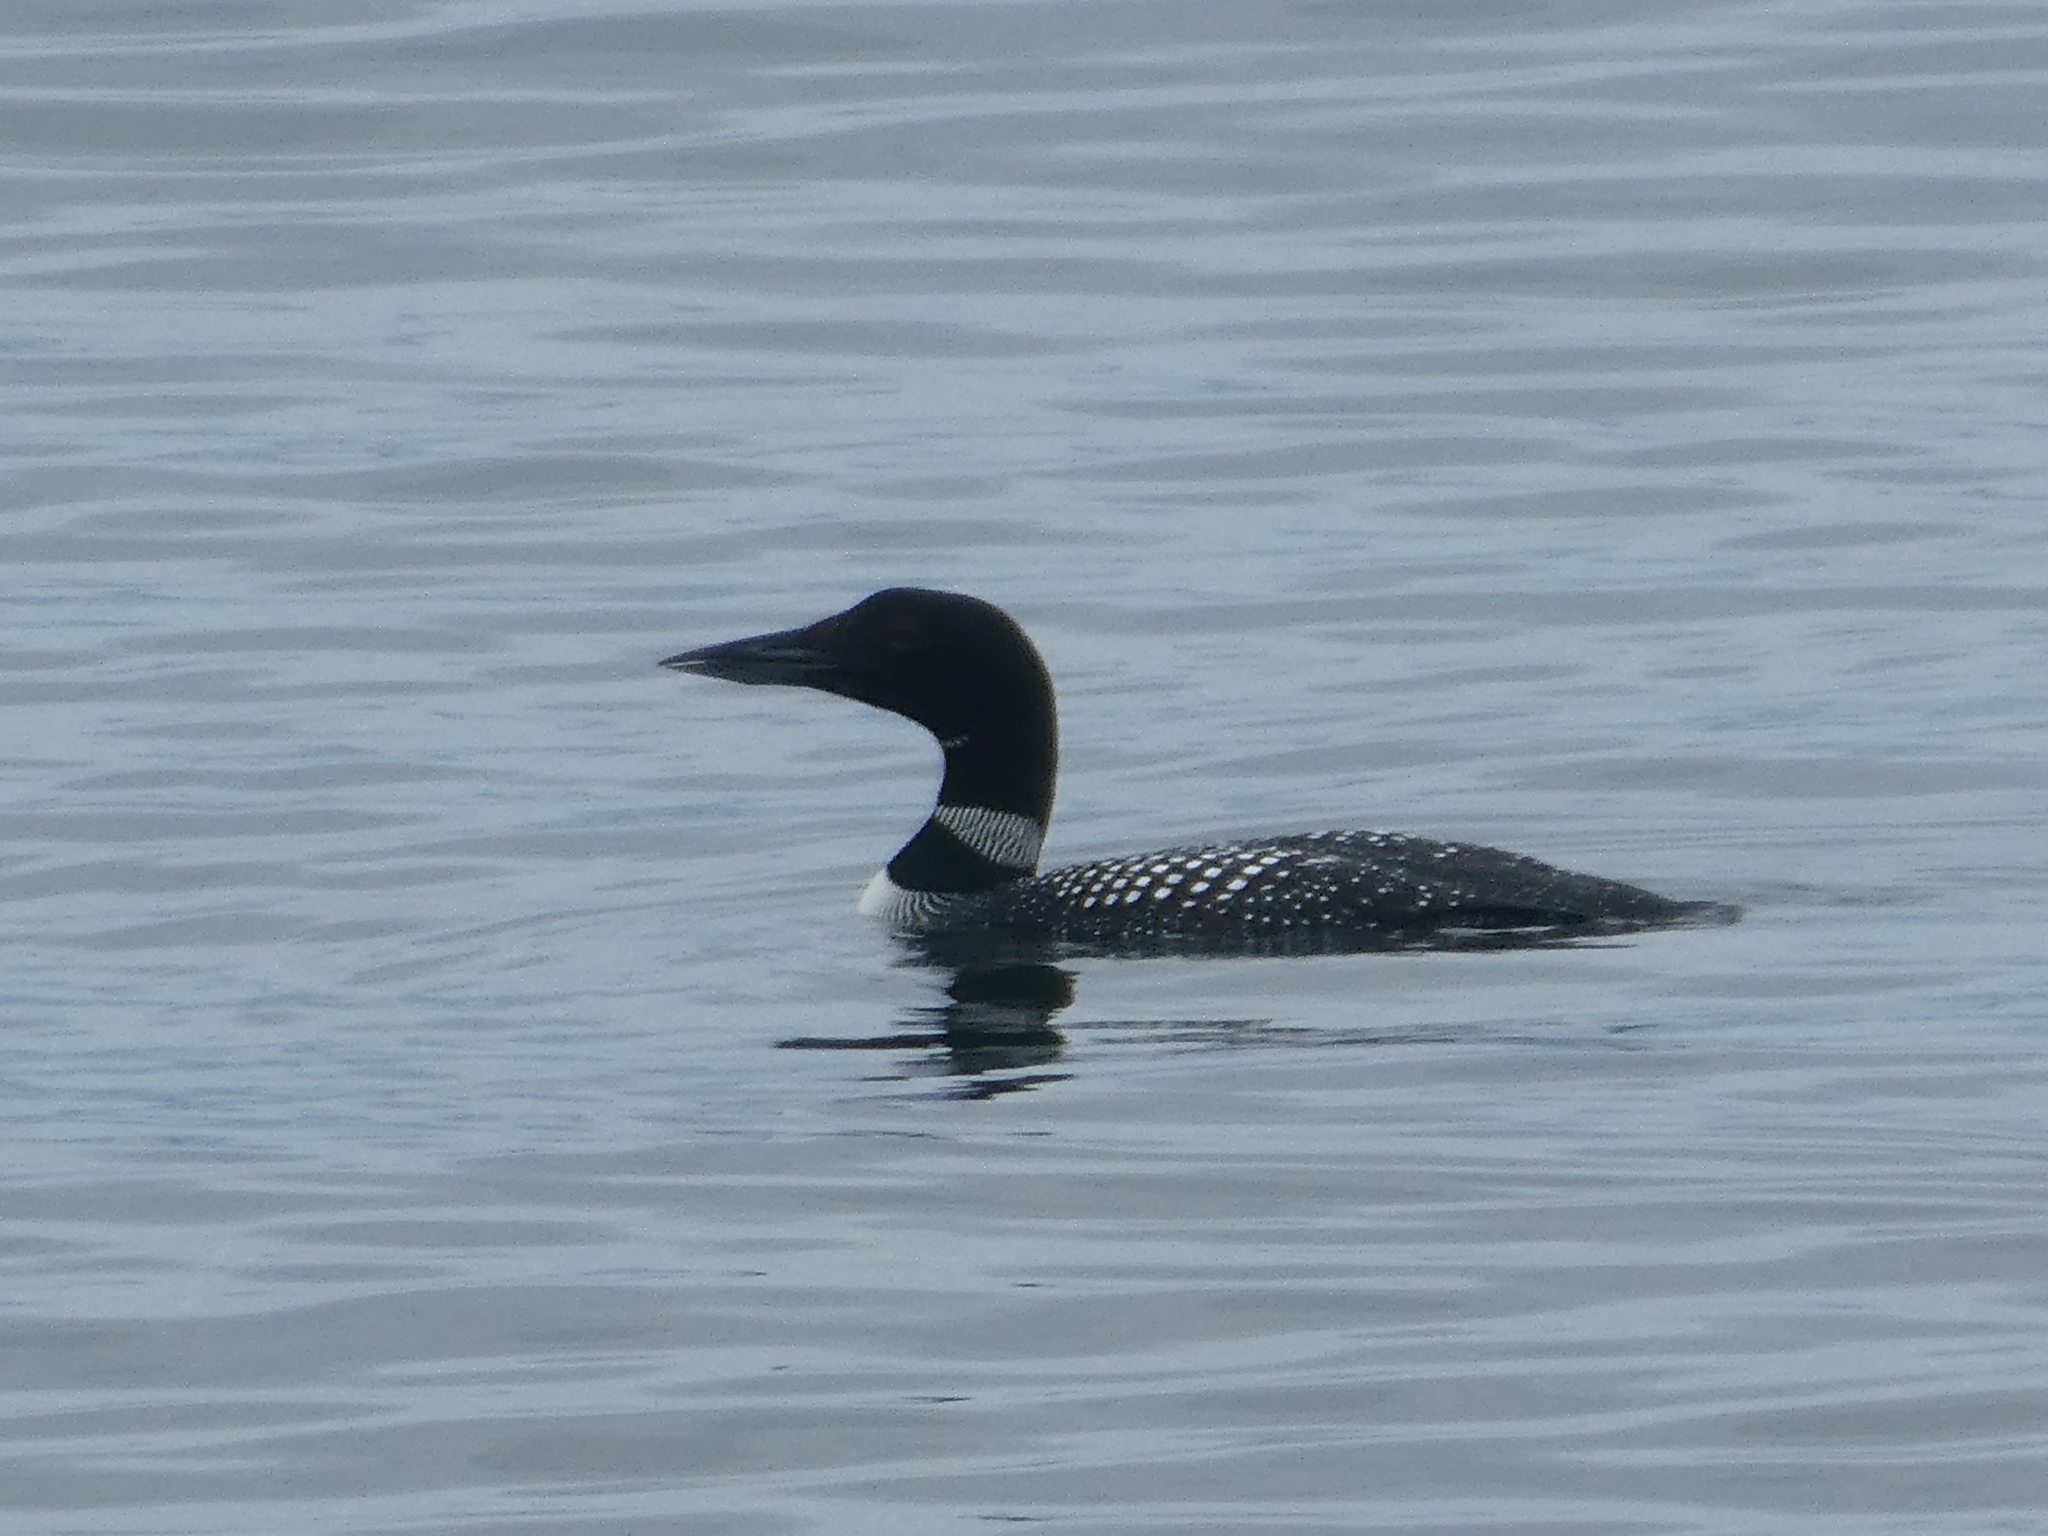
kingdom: Animalia
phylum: Chordata
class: Aves
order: Gaviiformes
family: Gaviidae
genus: Gavia
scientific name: Gavia immer
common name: Common loon
